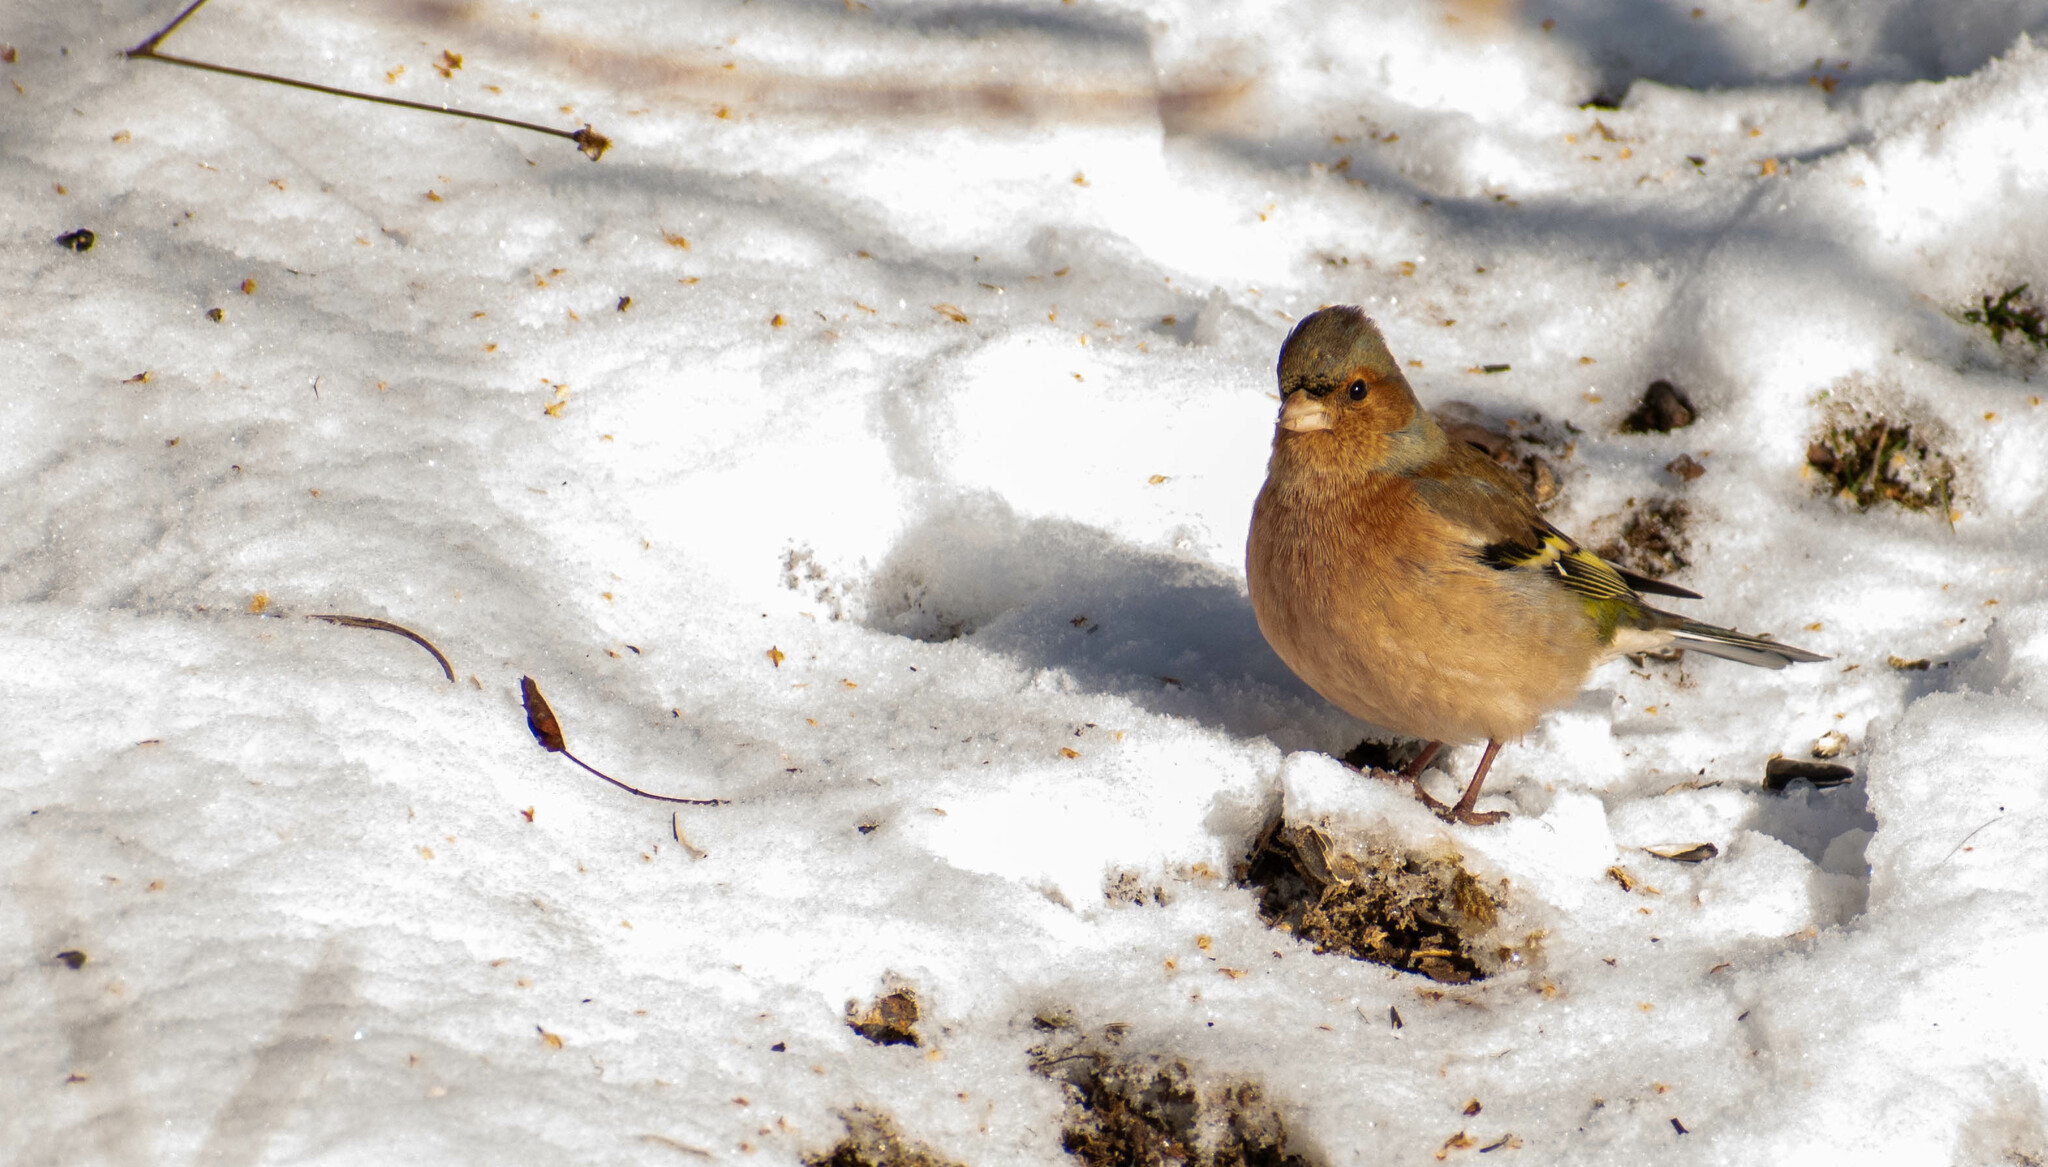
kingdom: Animalia
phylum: Chordata
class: Aves
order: Passeriformes
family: Fringillidae
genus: Fringilla
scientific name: Fringilla coelebs
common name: Common chaffinch
